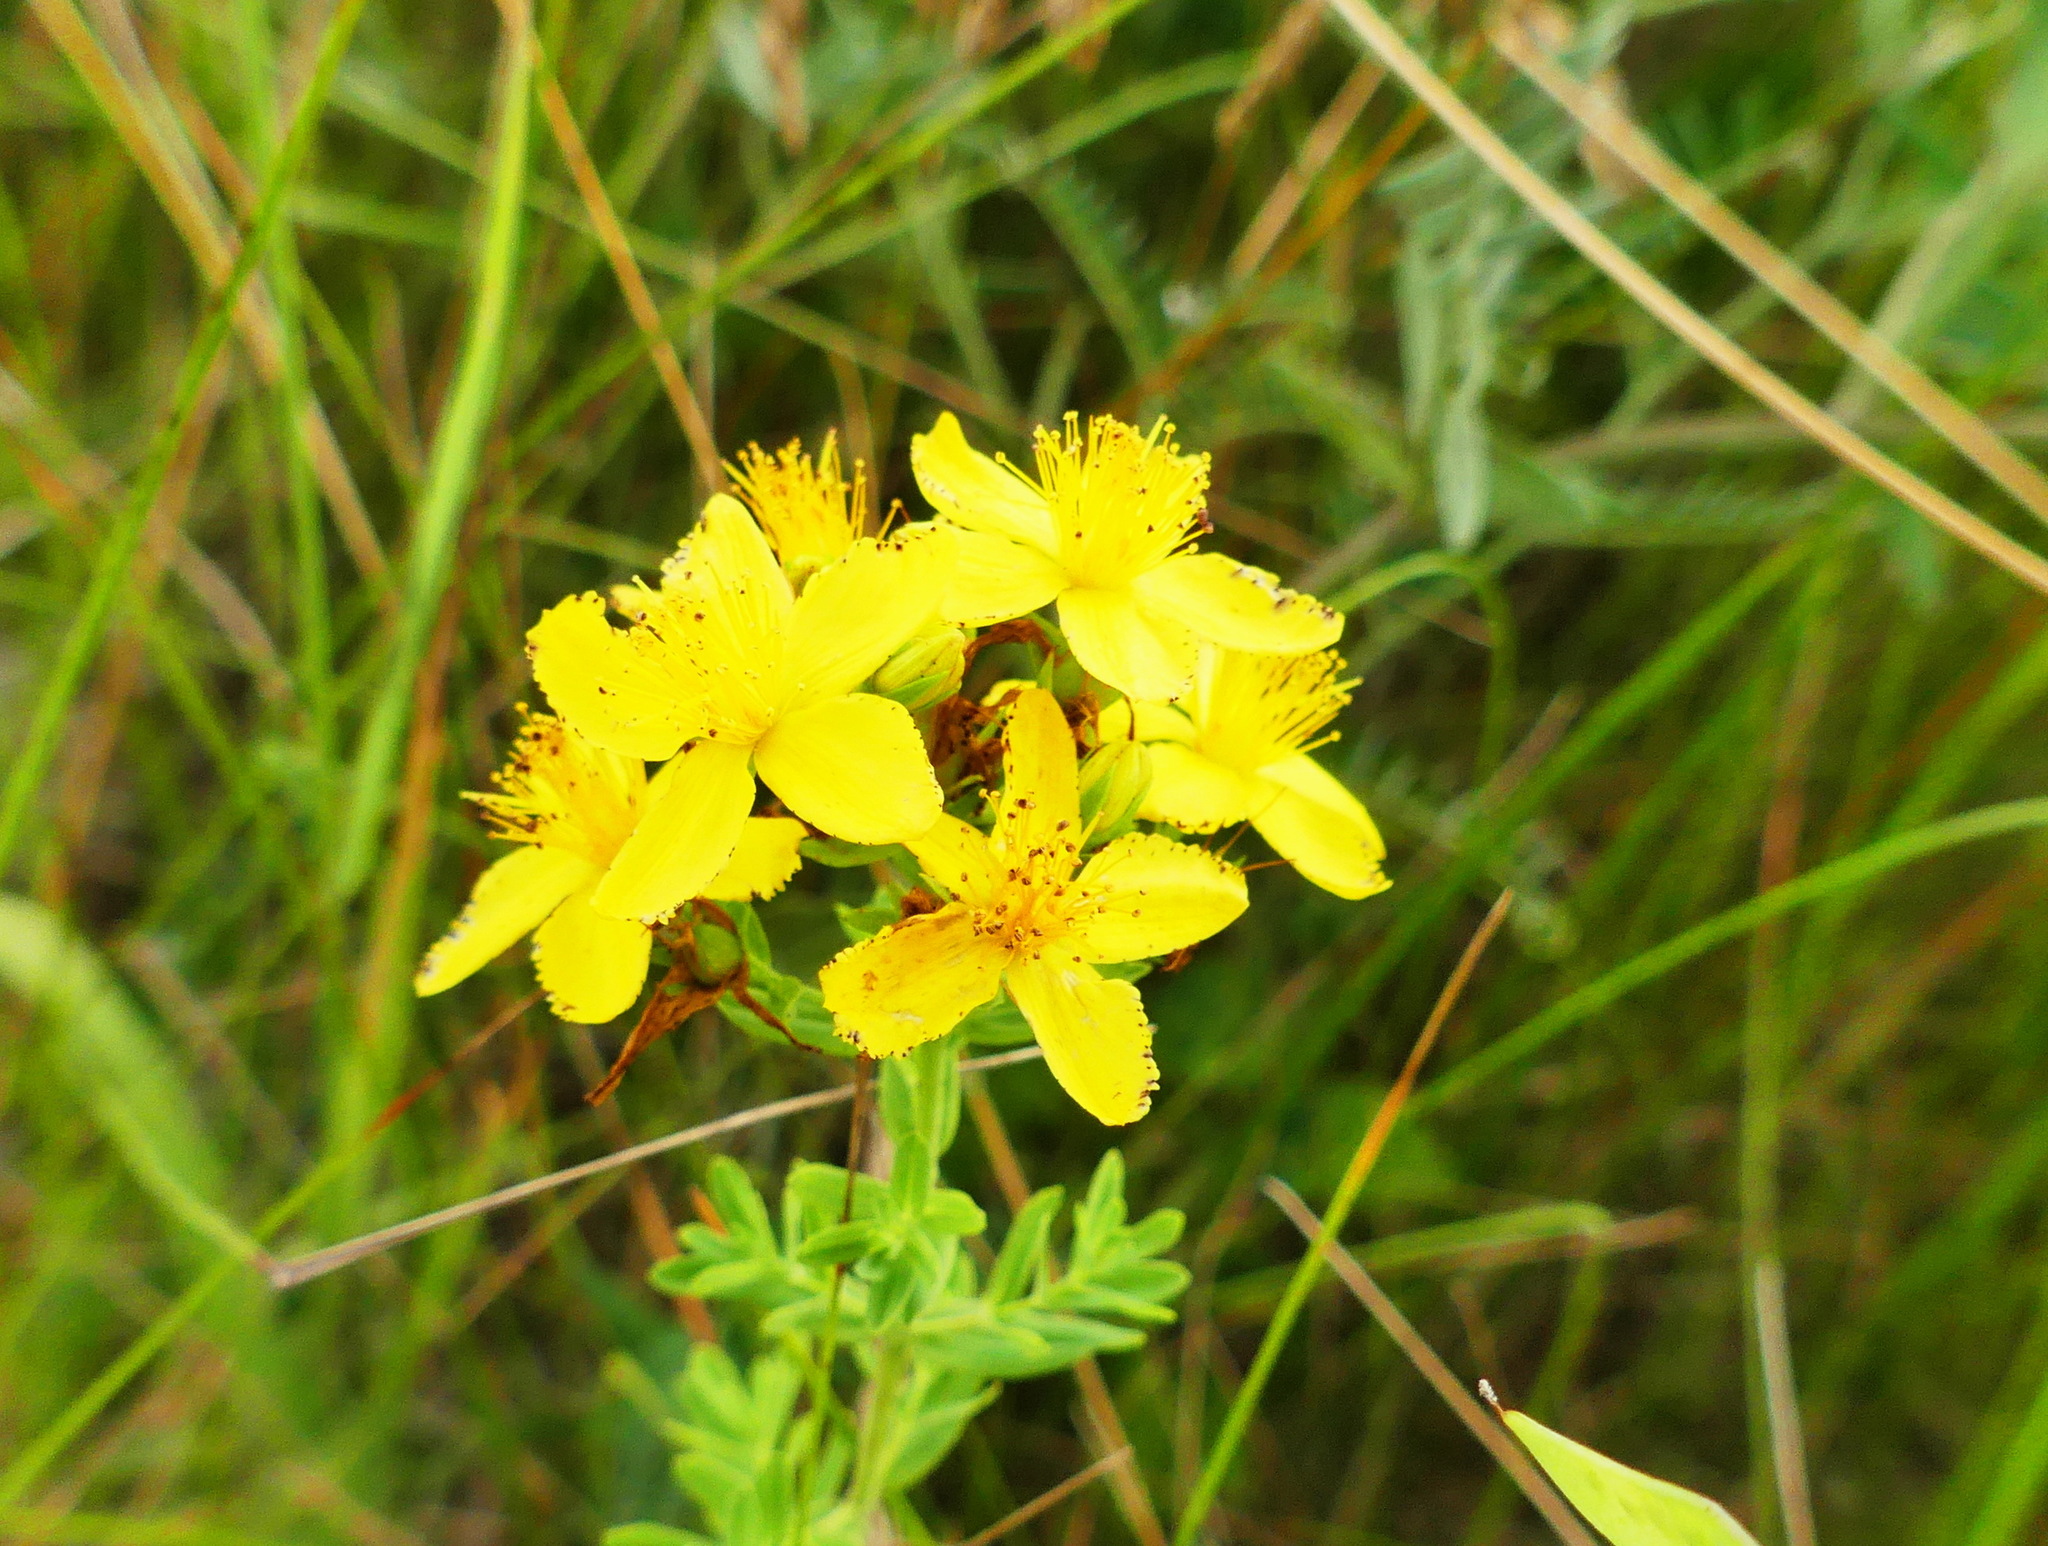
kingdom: Plantae
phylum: Tracheophyta
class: Magnoliopsida
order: Malpighiales
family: Hypericaceae
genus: Hypericum
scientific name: Hypericum perforatum
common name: Common st. johnswort
